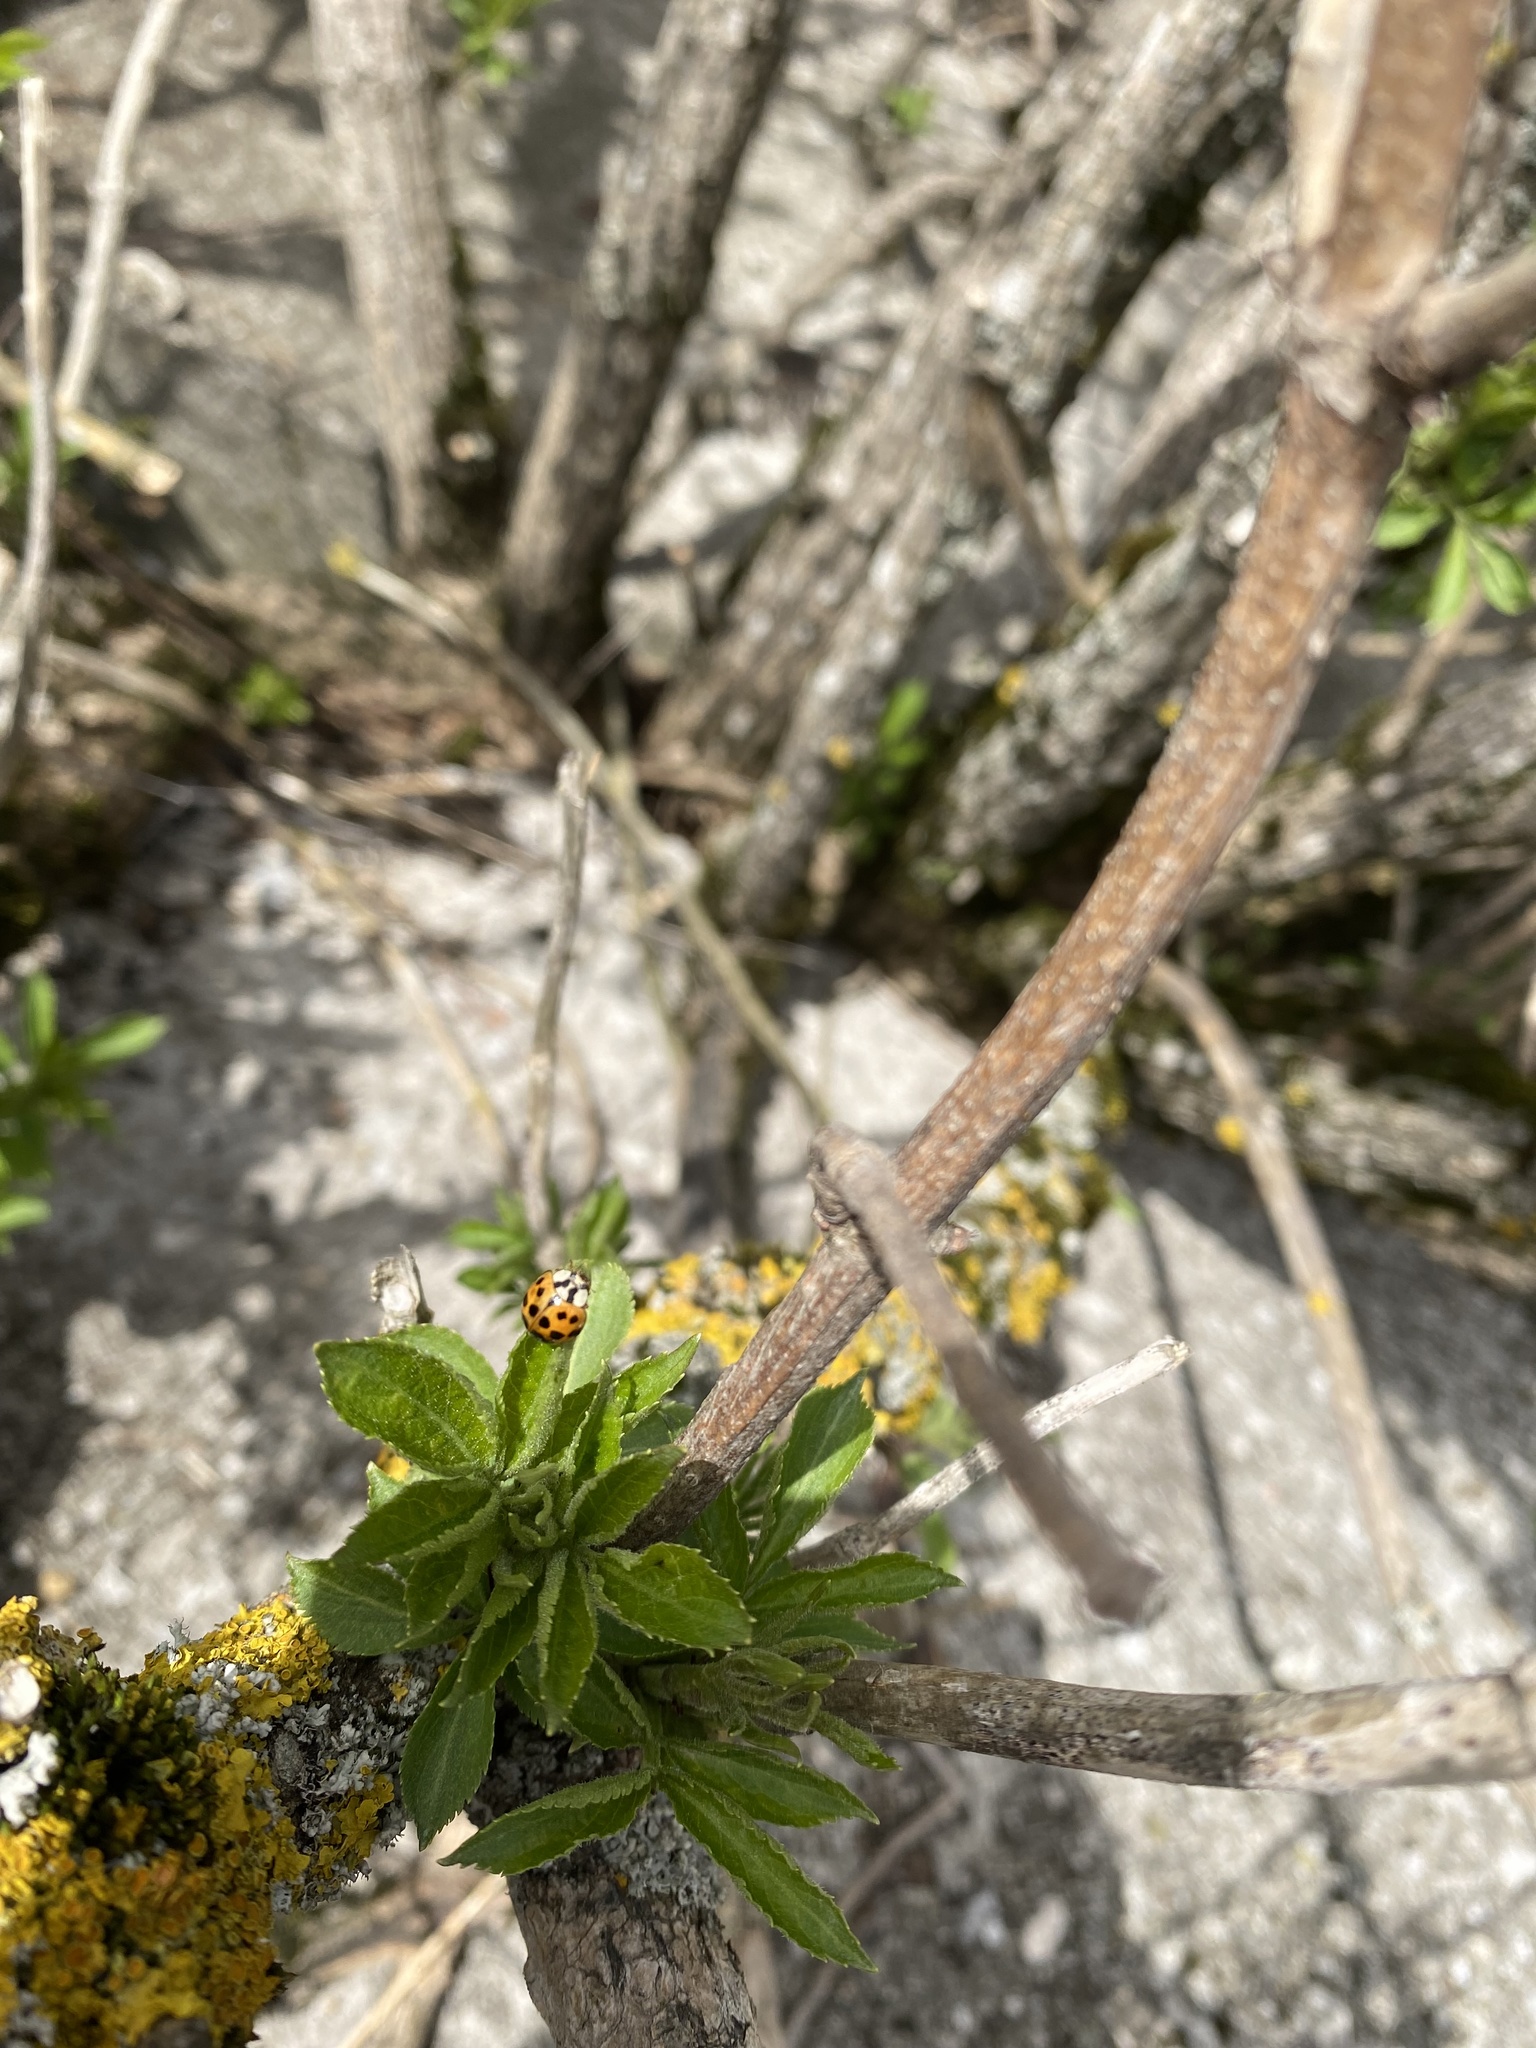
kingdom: Animalia
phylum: Arthropoda
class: Insecta
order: Coleoptera
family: Coccinellidae
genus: Harmonia
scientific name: Harmonia axyridis
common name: Harlequin ladybird
